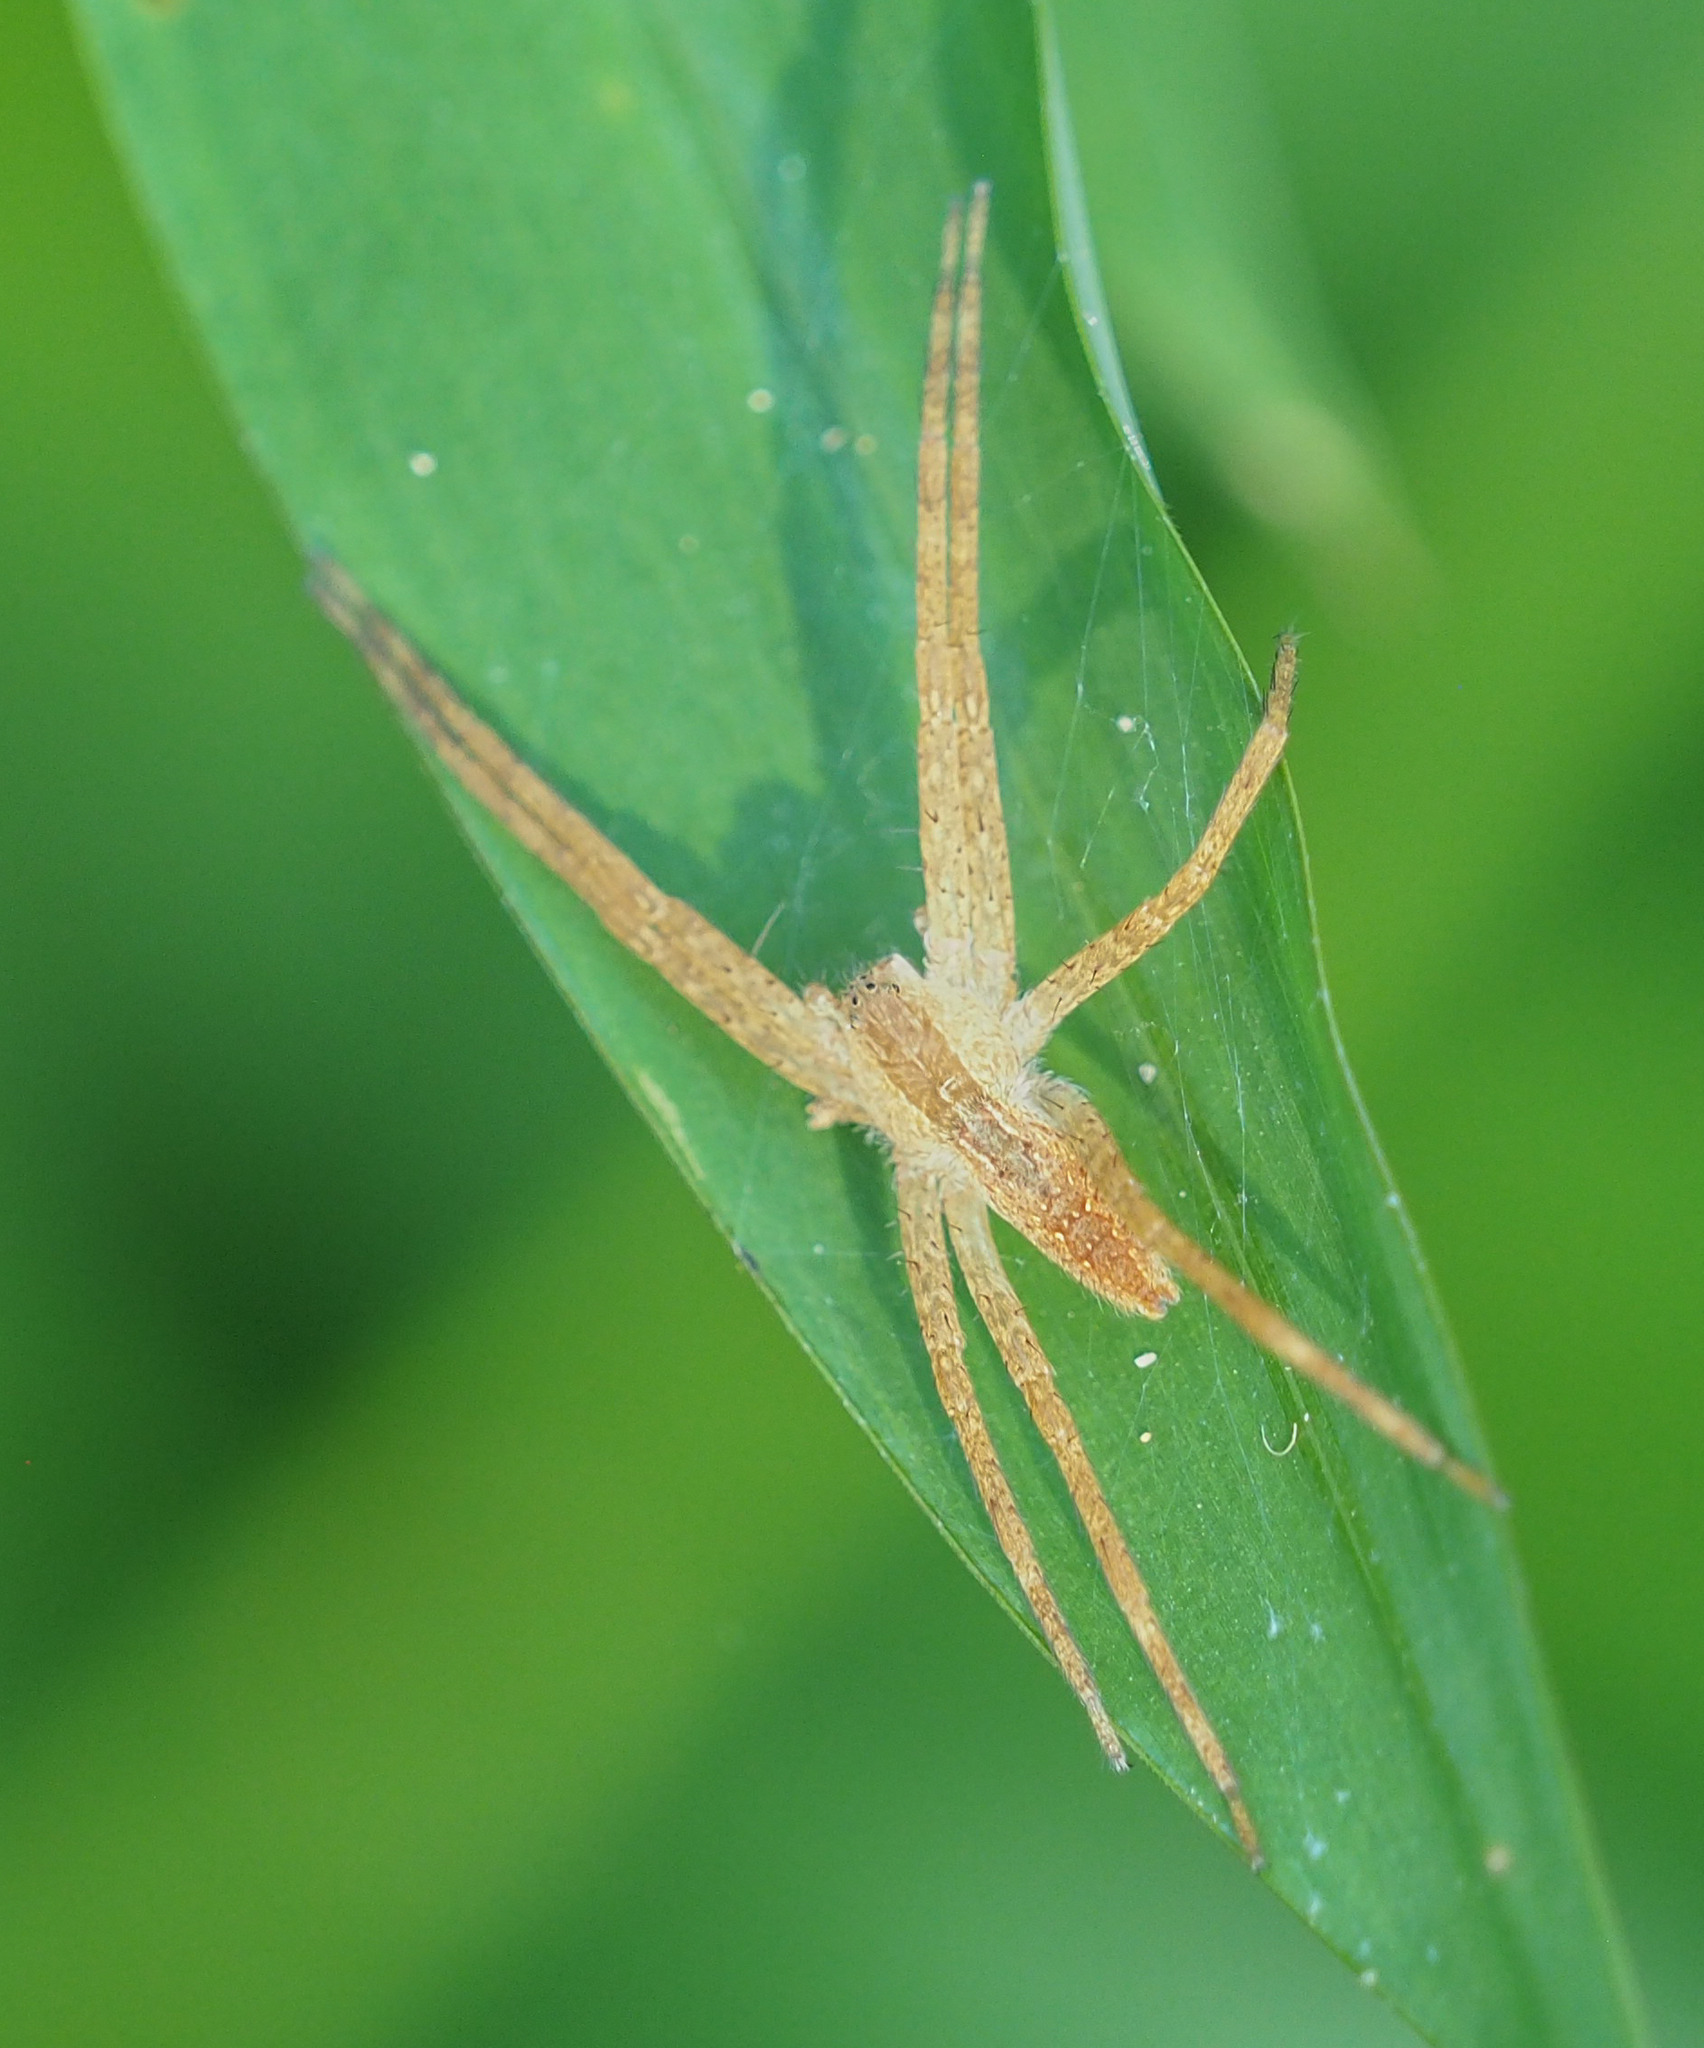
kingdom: Animalia
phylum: Arthropoda
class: Arachnida
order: Araneae
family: Pisauridae
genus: Pisaurina
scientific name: Pisaurina mira
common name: American nursery web spider
